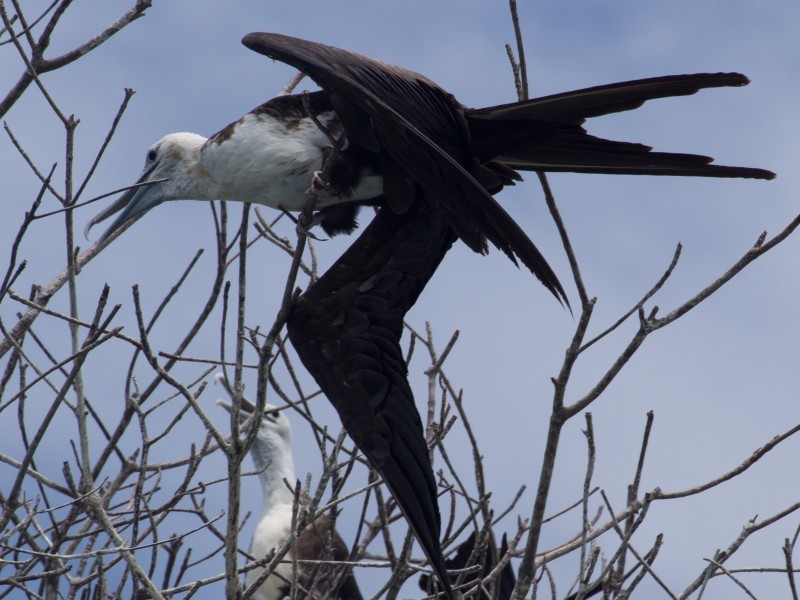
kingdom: Animalia
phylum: Chordata
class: Aves
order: Suliformes
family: Fregatidae
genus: Fregata
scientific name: Fregata magnificens
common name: Magnificent frigatebird
